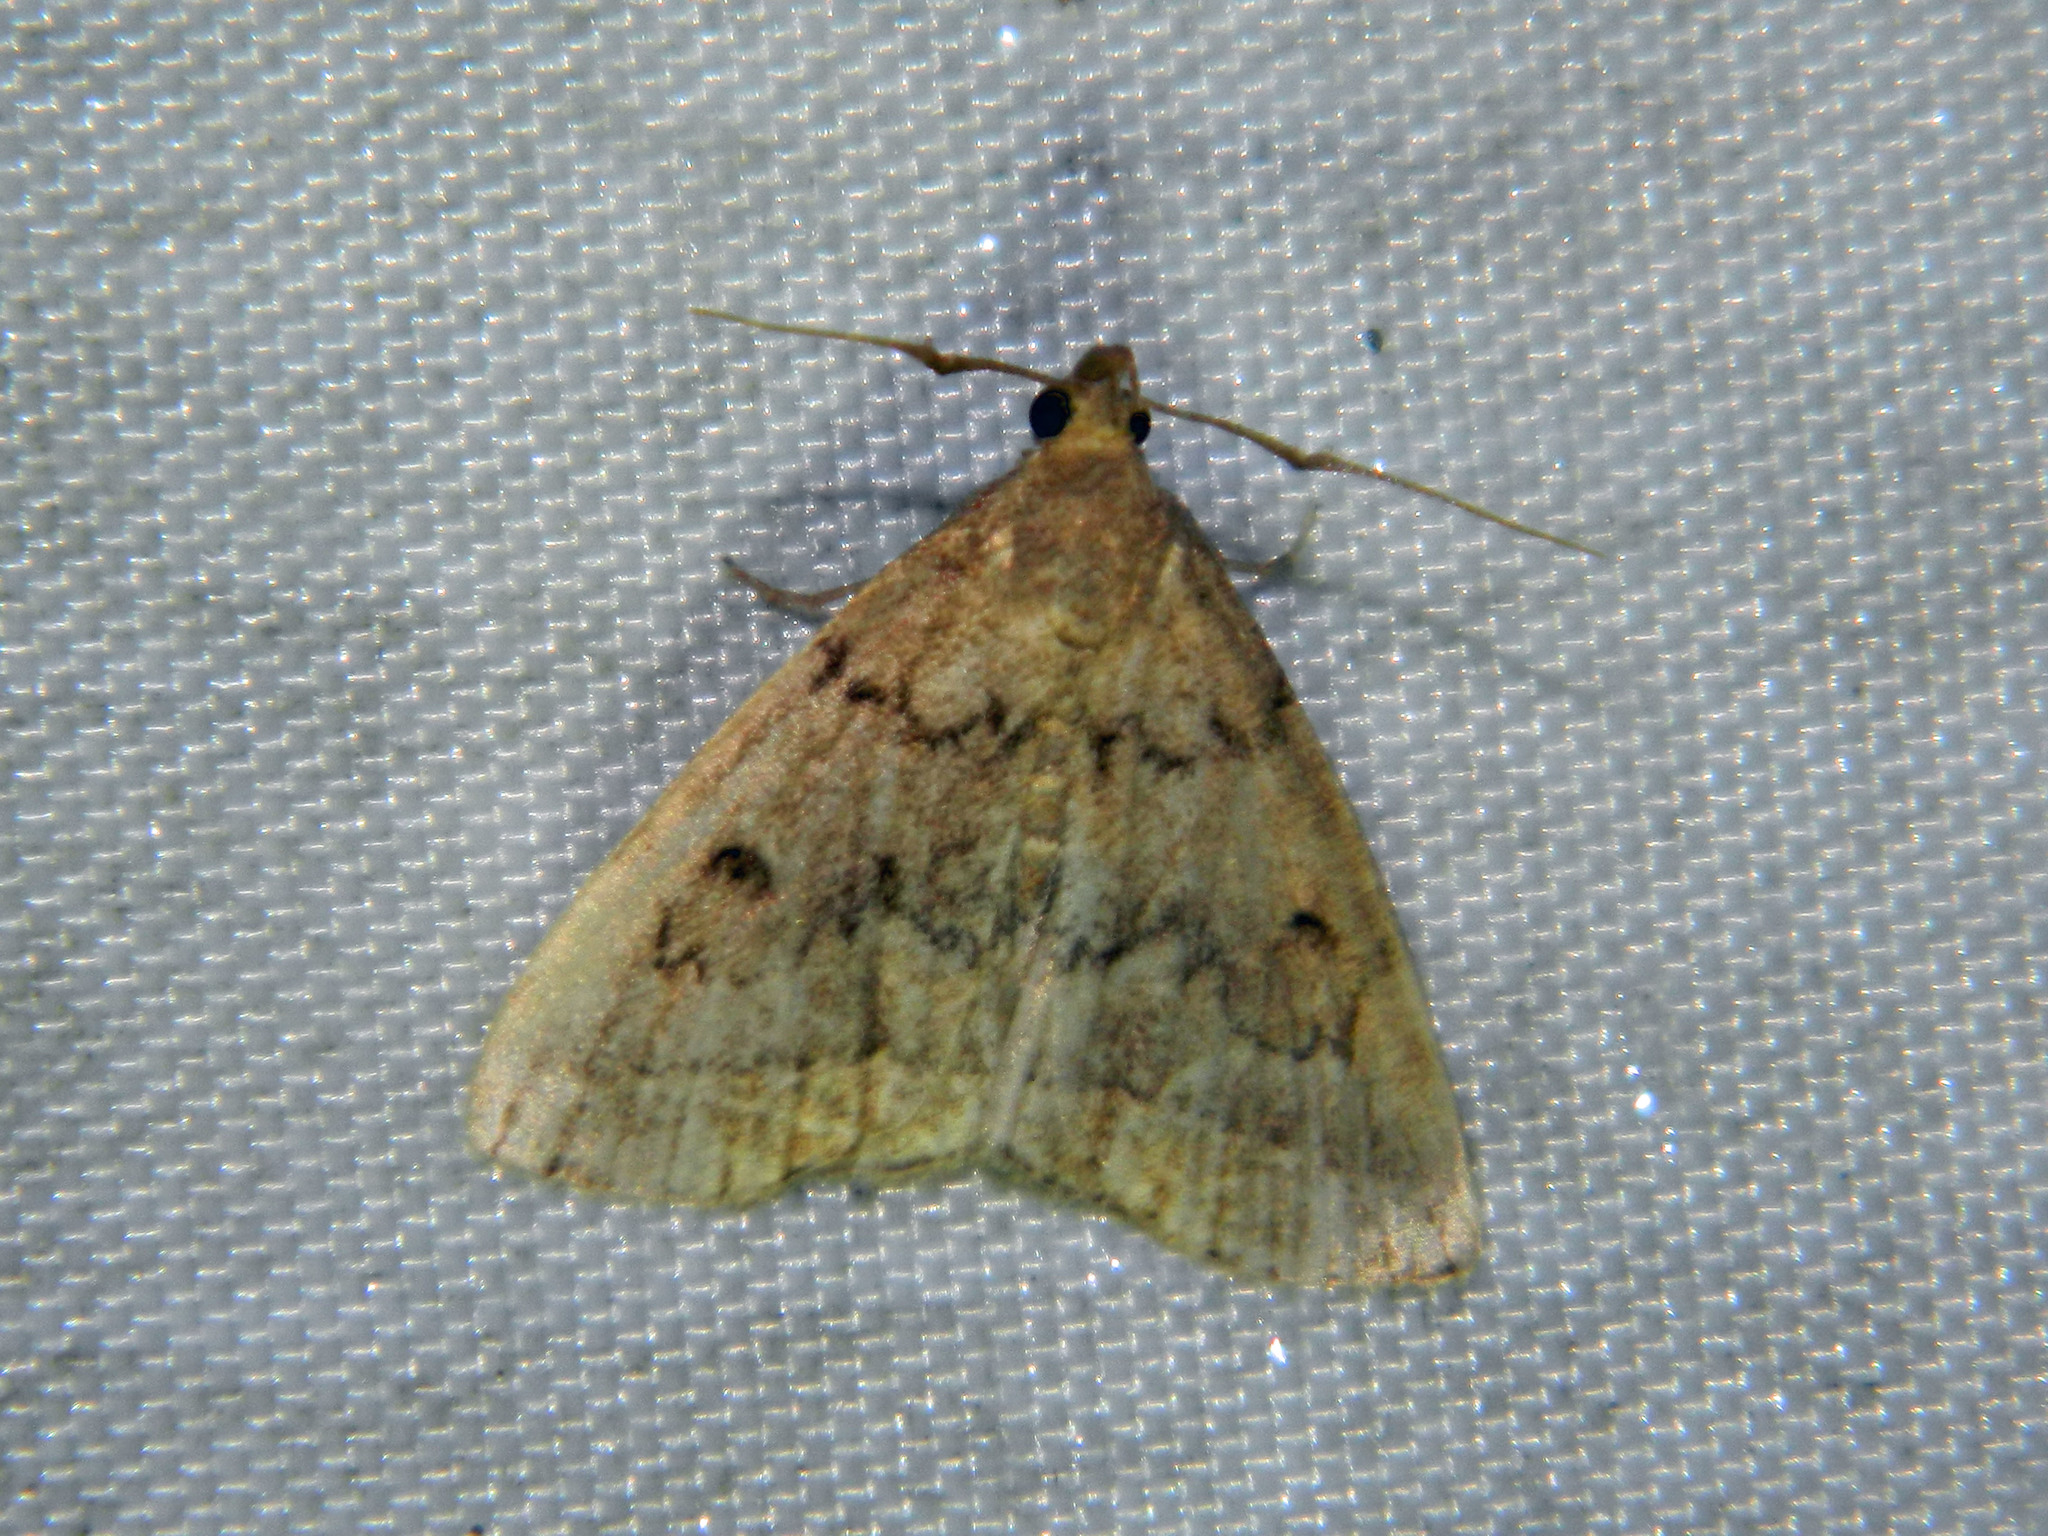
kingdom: Animalia
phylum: Arthropoda
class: Insecta
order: Lepidoptera
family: Erebidae
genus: Zanclognatha
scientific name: Zanclognatha dentata
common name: Toothed fan-foot
